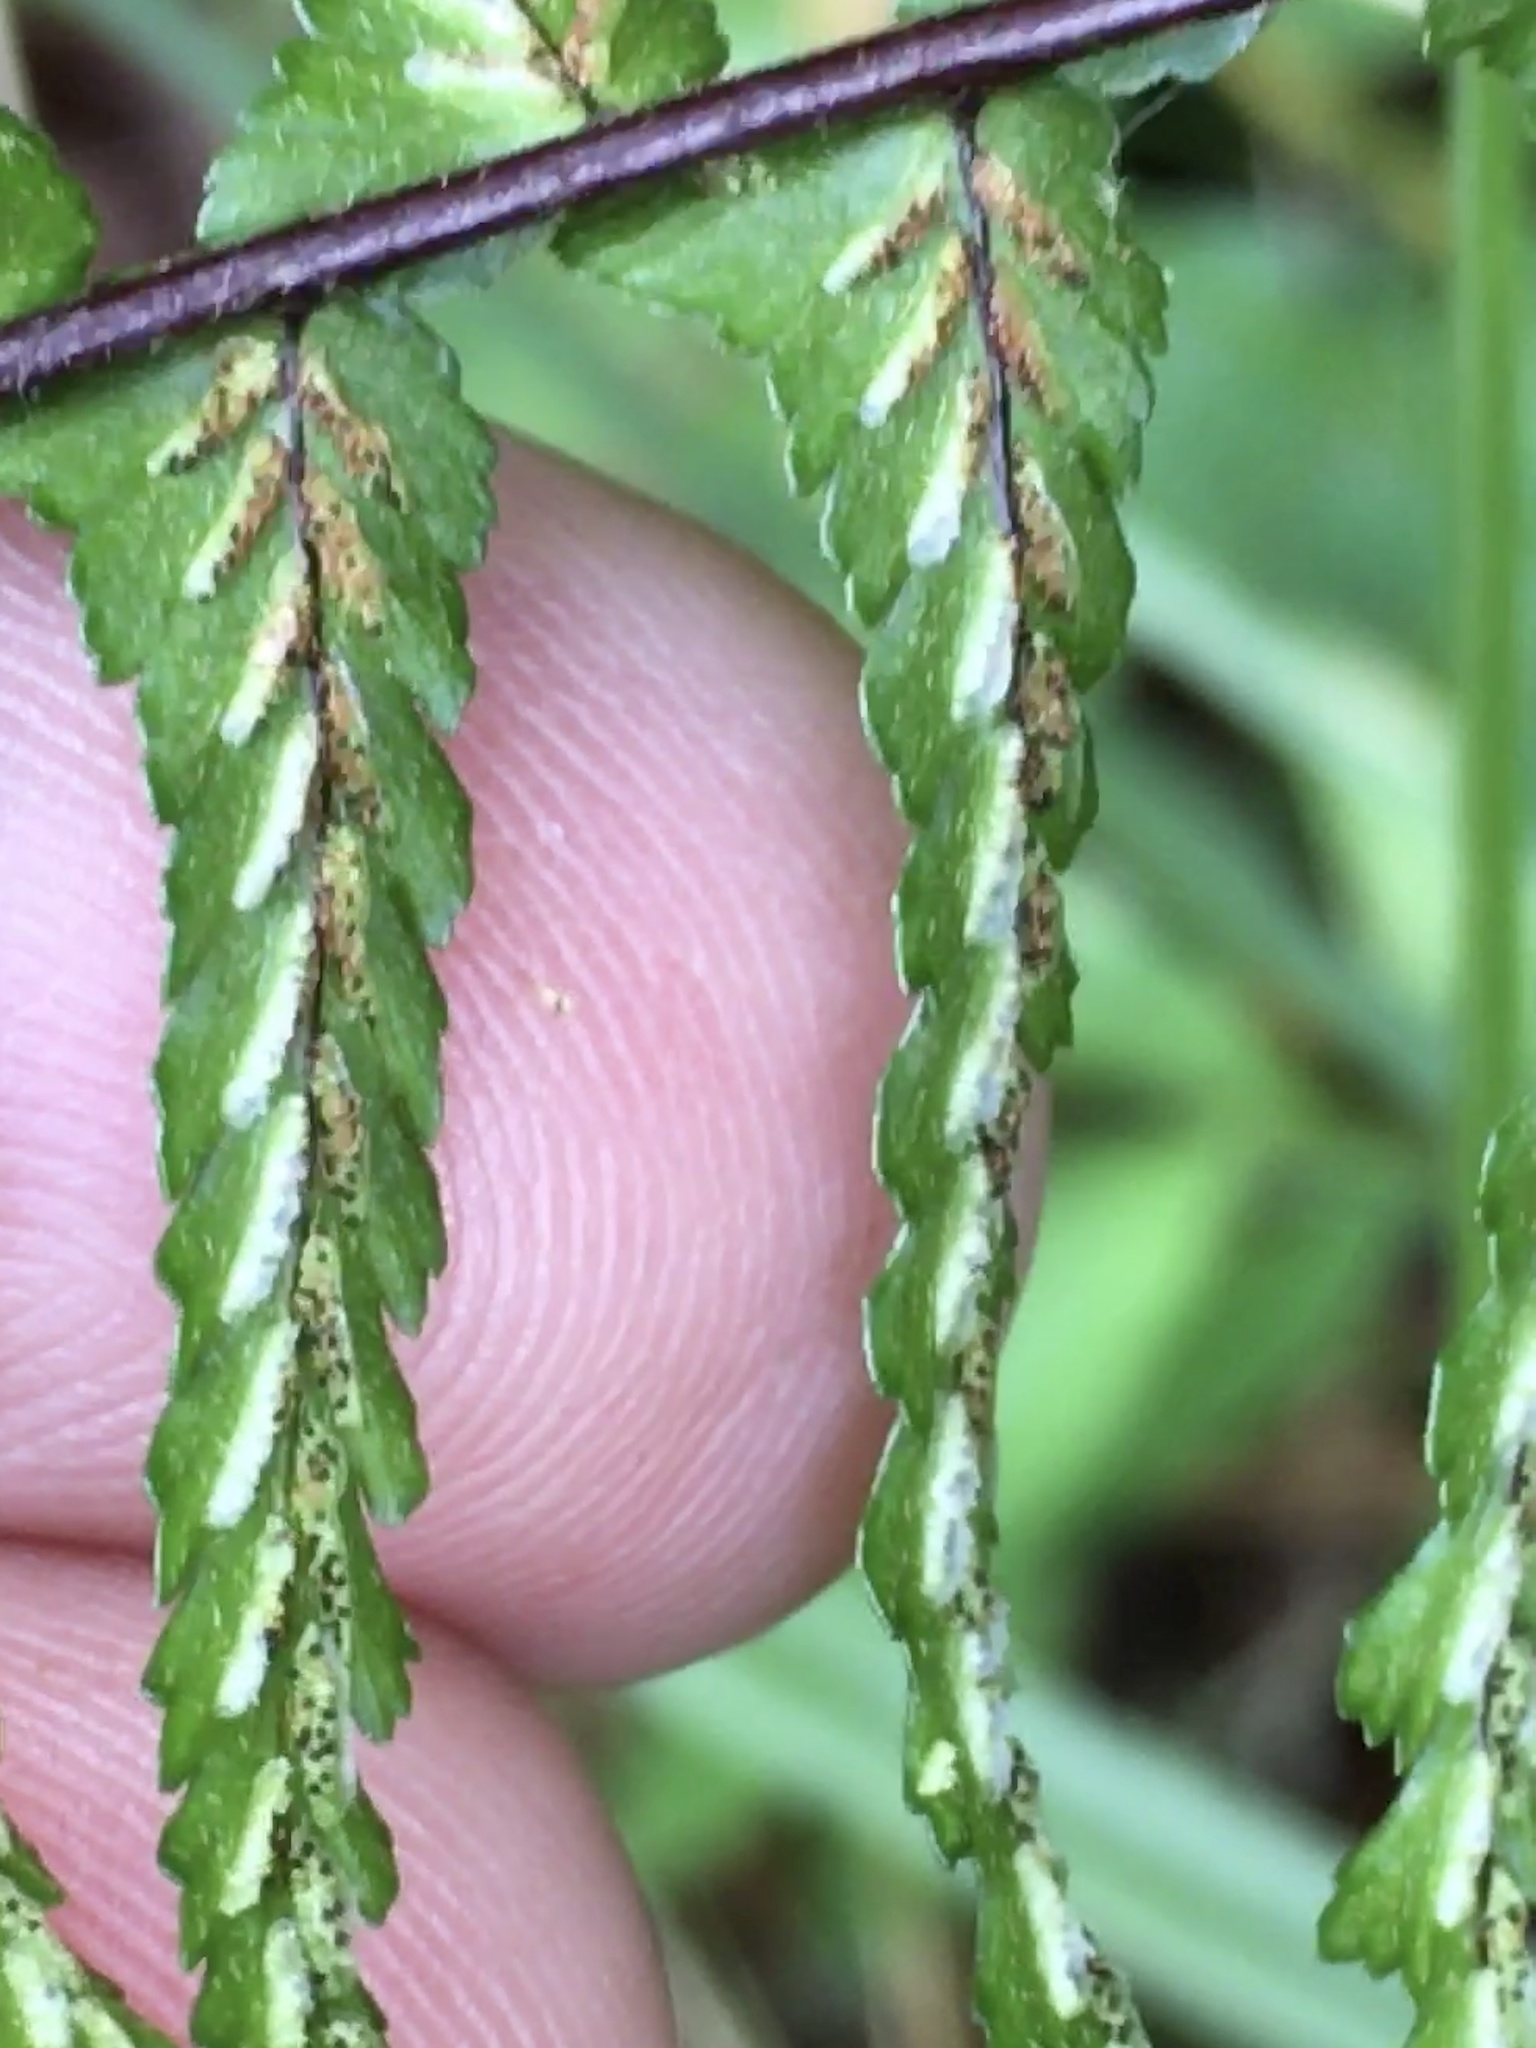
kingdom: Plantae
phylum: Tracheophyta
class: Polypodiopsida
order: Polypodiales
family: Aspleniaceae
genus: Asplenium
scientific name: Asplenium platyneuron
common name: Ebony spleenwort
